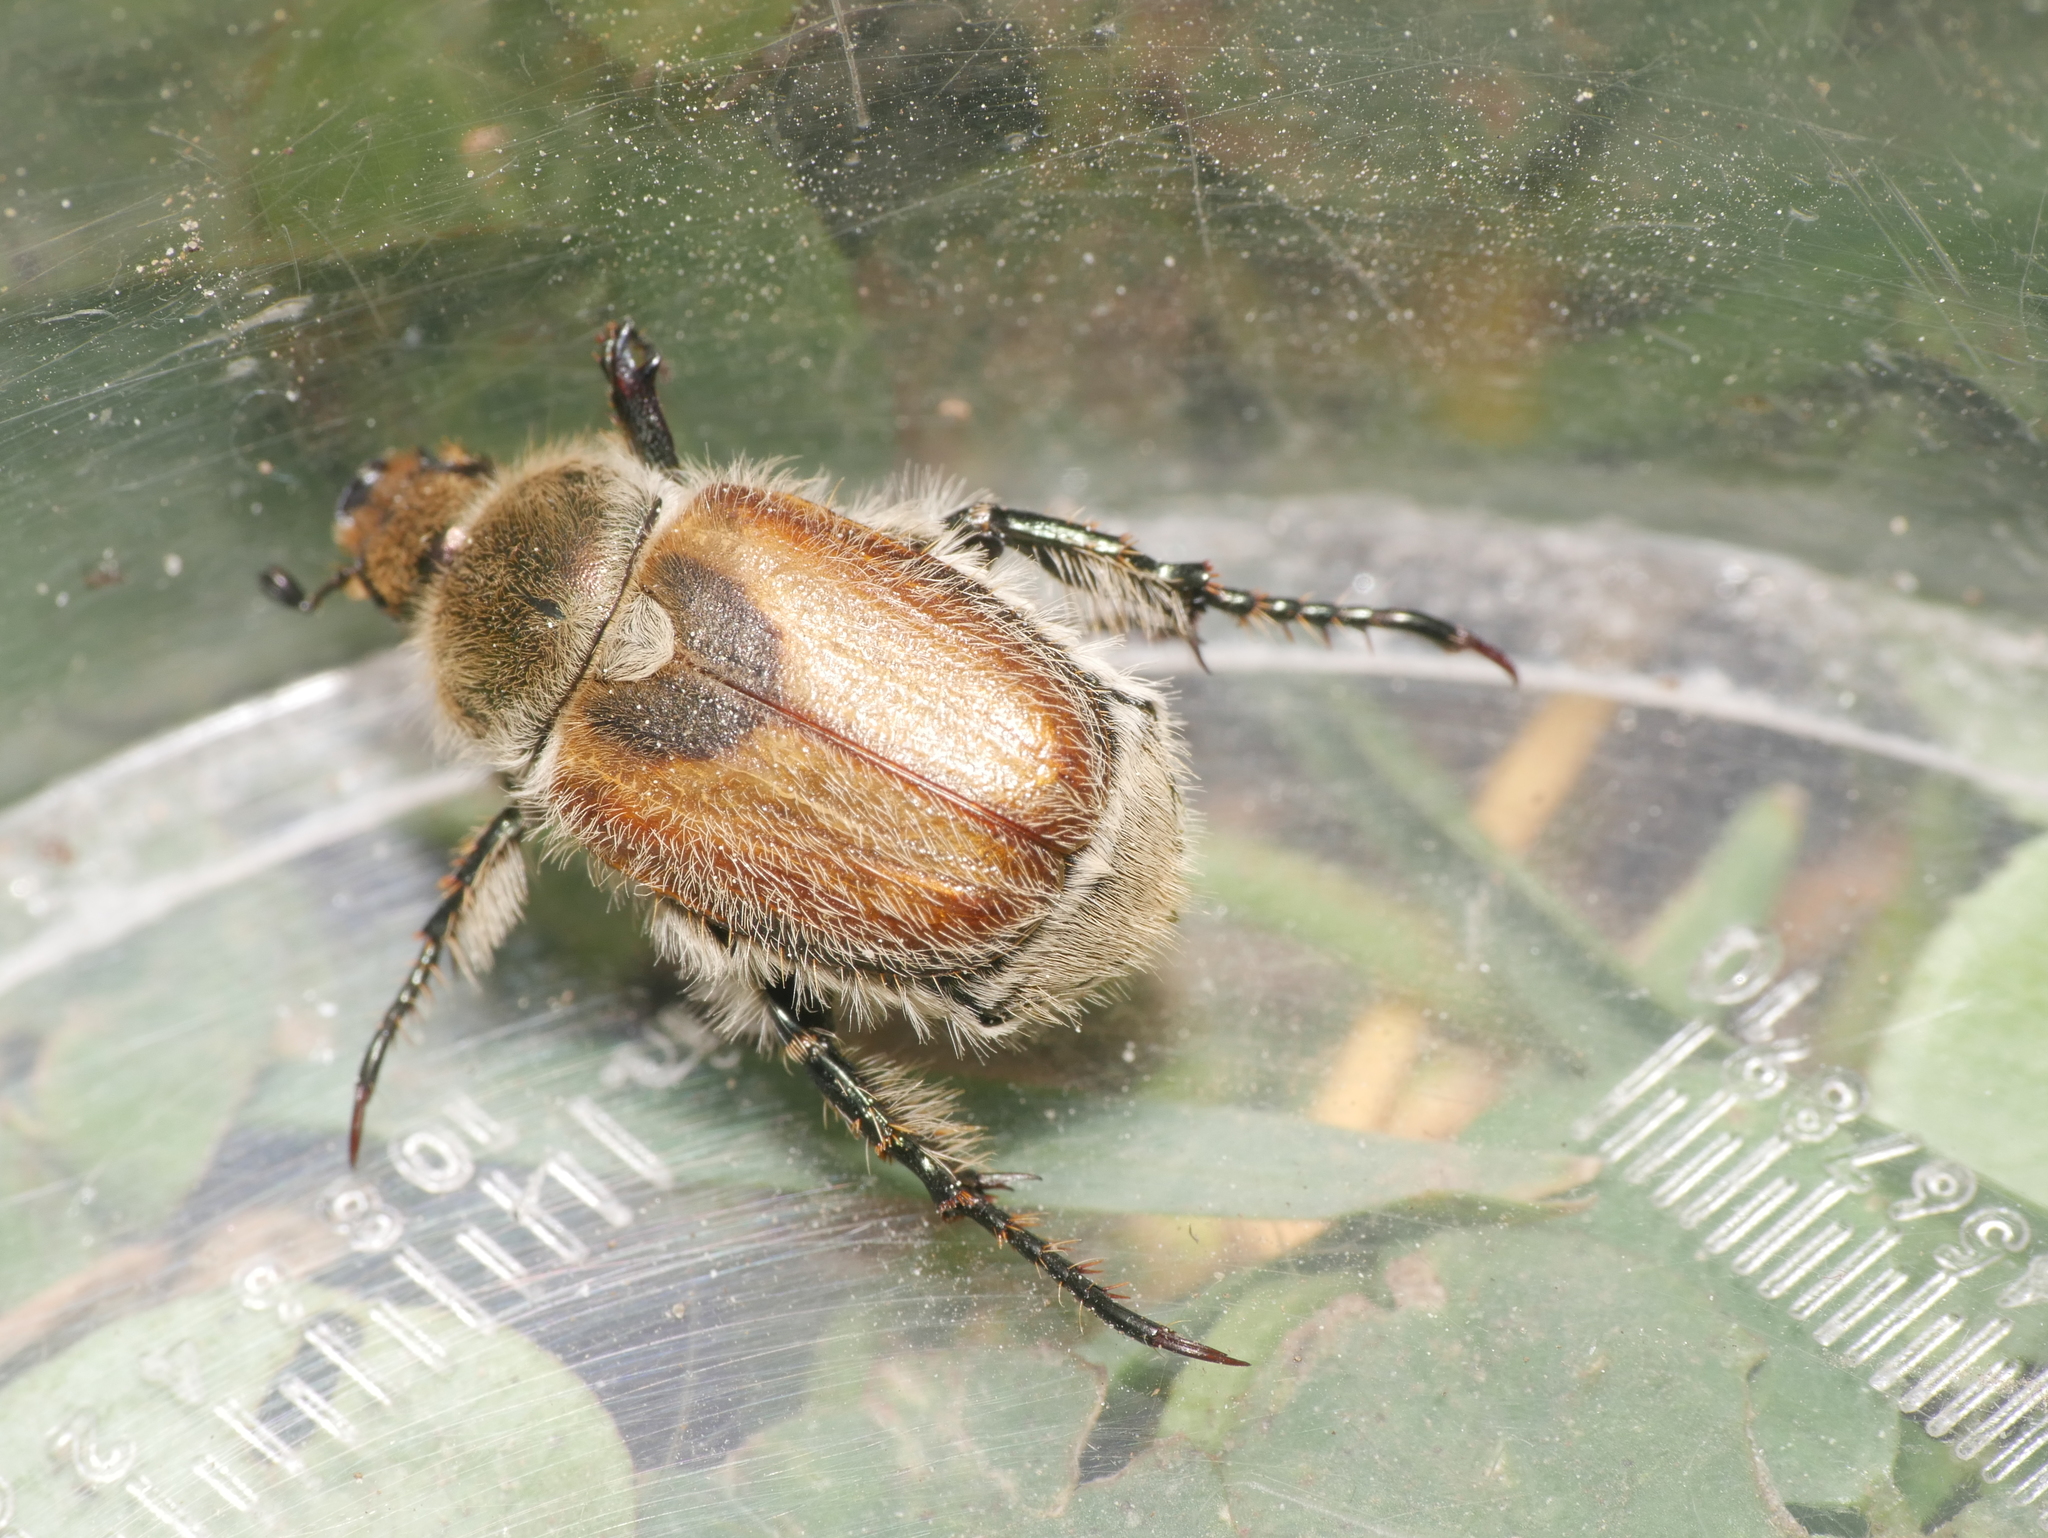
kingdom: Animalia
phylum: Arthropoda
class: Insecta
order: Coleoptera
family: Scarabaeidae
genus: Chaetopteroplia
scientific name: Chaetopteroplia segetum
